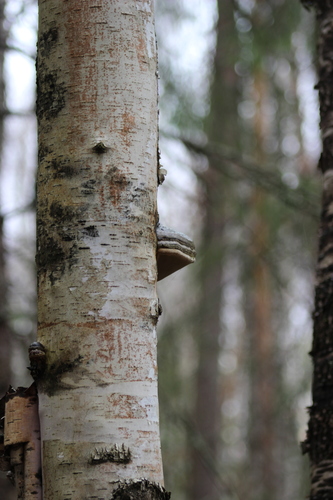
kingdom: Fungi
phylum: Basidiomycota
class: Agaricomycetes
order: Polyporales
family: Polyporaceae
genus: Fomes
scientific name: Fomes fomentarius
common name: Hoof fungus
